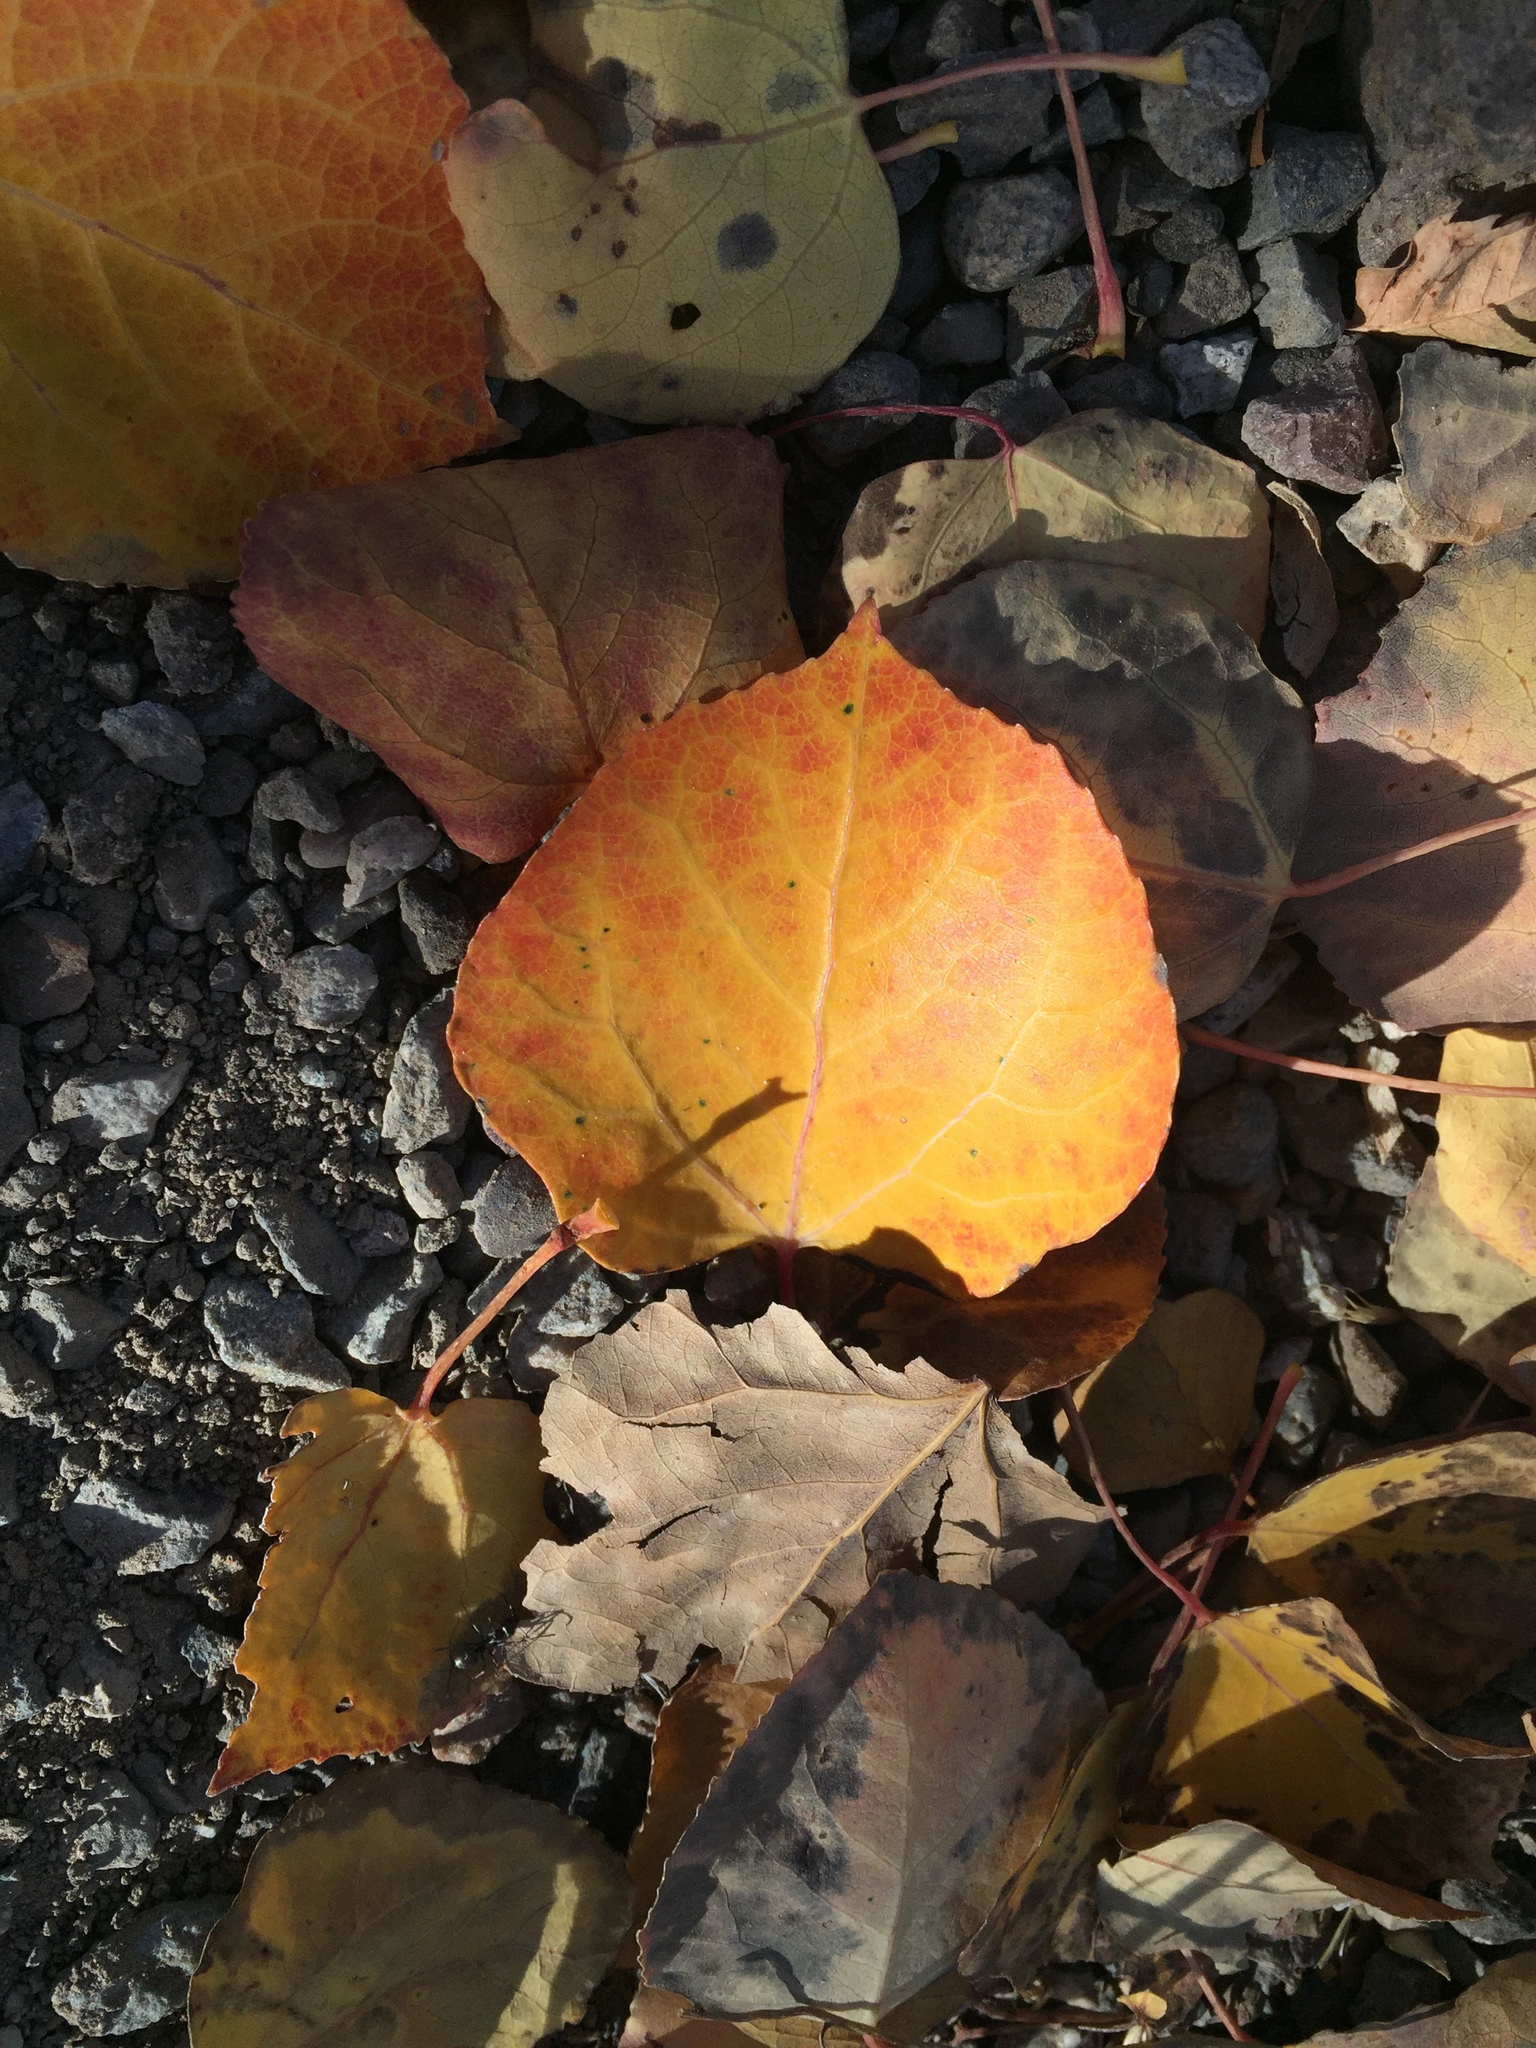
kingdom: Plantae
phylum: Tracheophyta
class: Magnoliopsida
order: Malpighiales
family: Salicaceae
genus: Populus
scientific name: Populus tremuloides
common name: Quaking aspen
